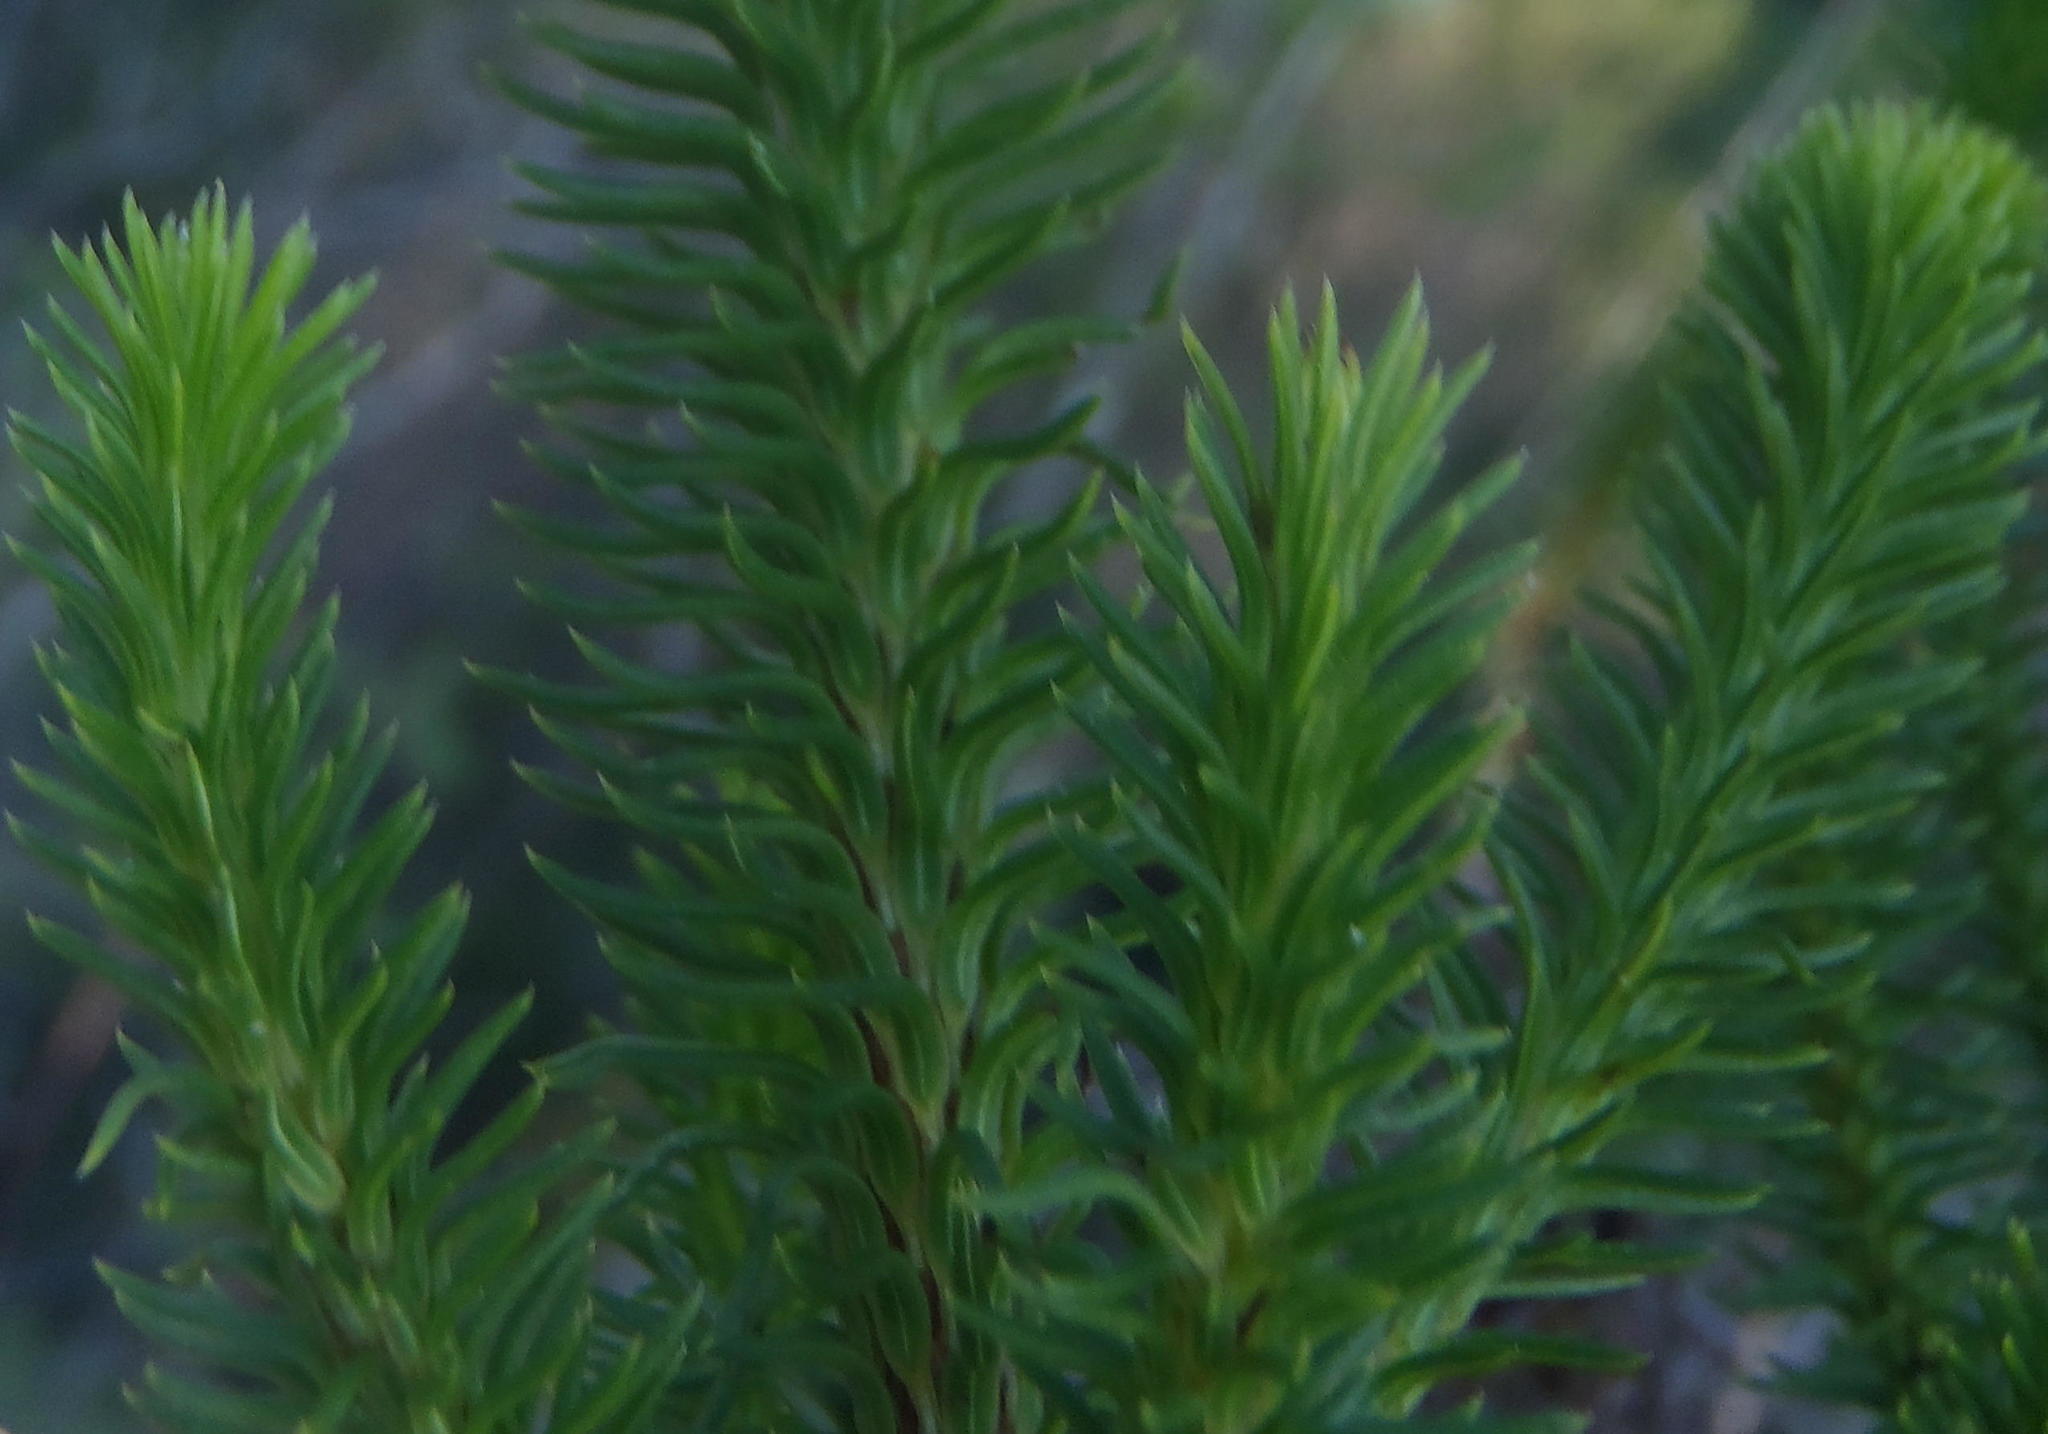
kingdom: Plantae
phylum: Tracheophyta
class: Magnoliopsida
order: Ericales
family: Ericaceae
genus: Erica
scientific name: Erica sessiliflora
